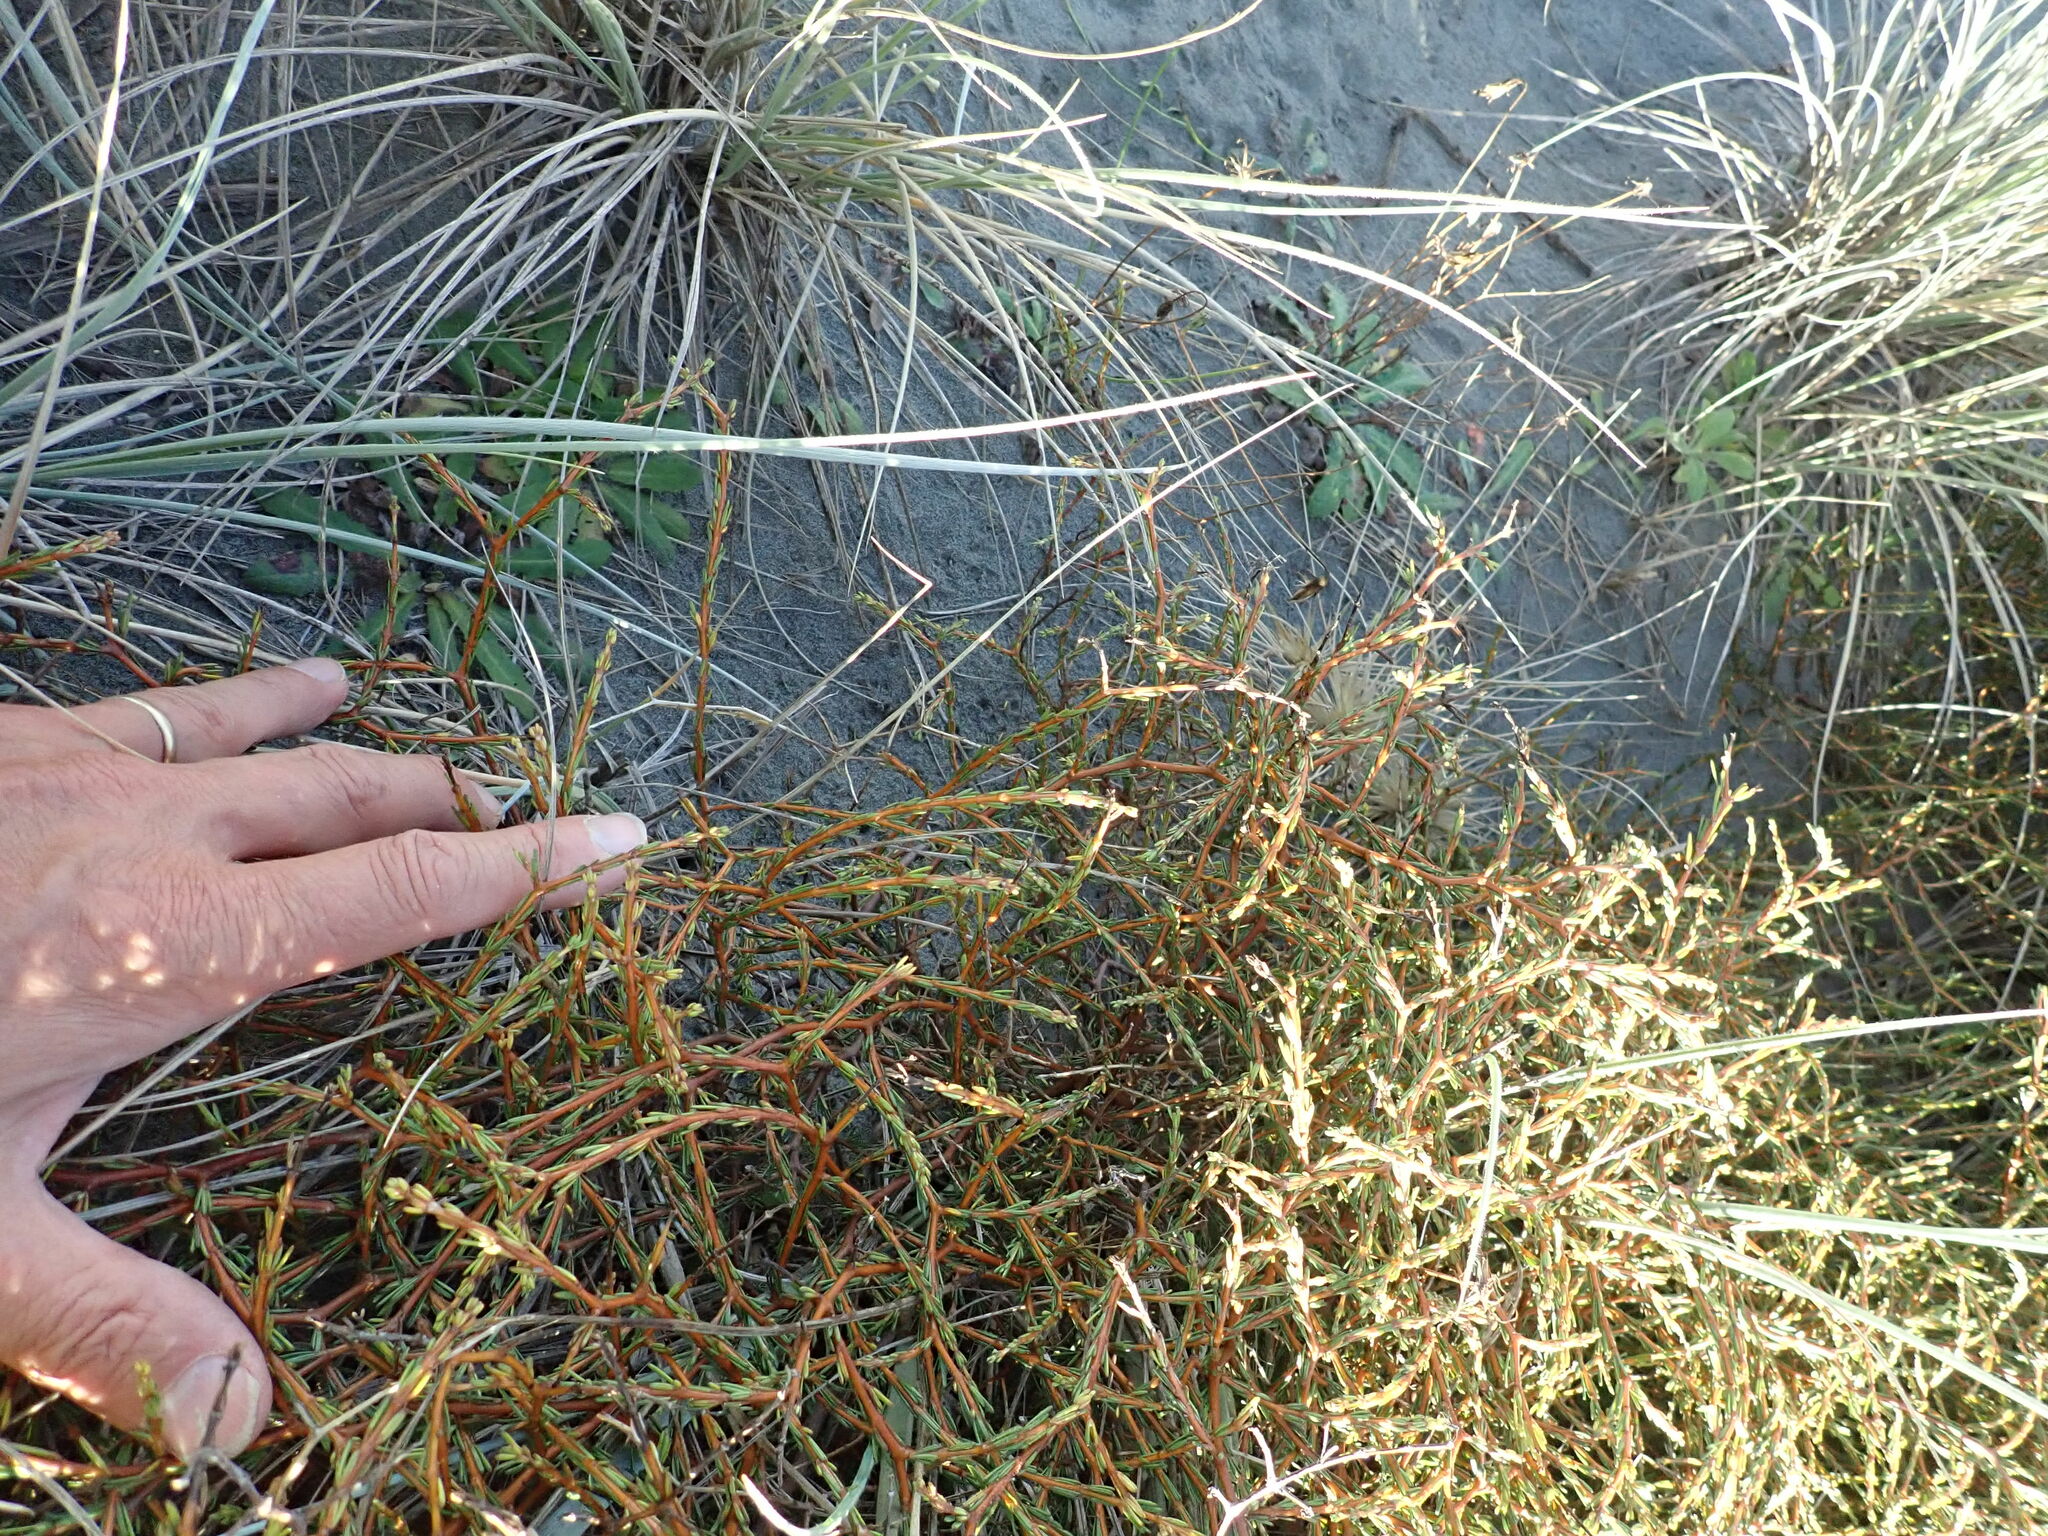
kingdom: Plantae
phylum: Tracheophyta
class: Magnoliopsida
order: Gentianales
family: Rubiaceae
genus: Coprosma
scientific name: Coprosma acerosa
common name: Sand coprosma
